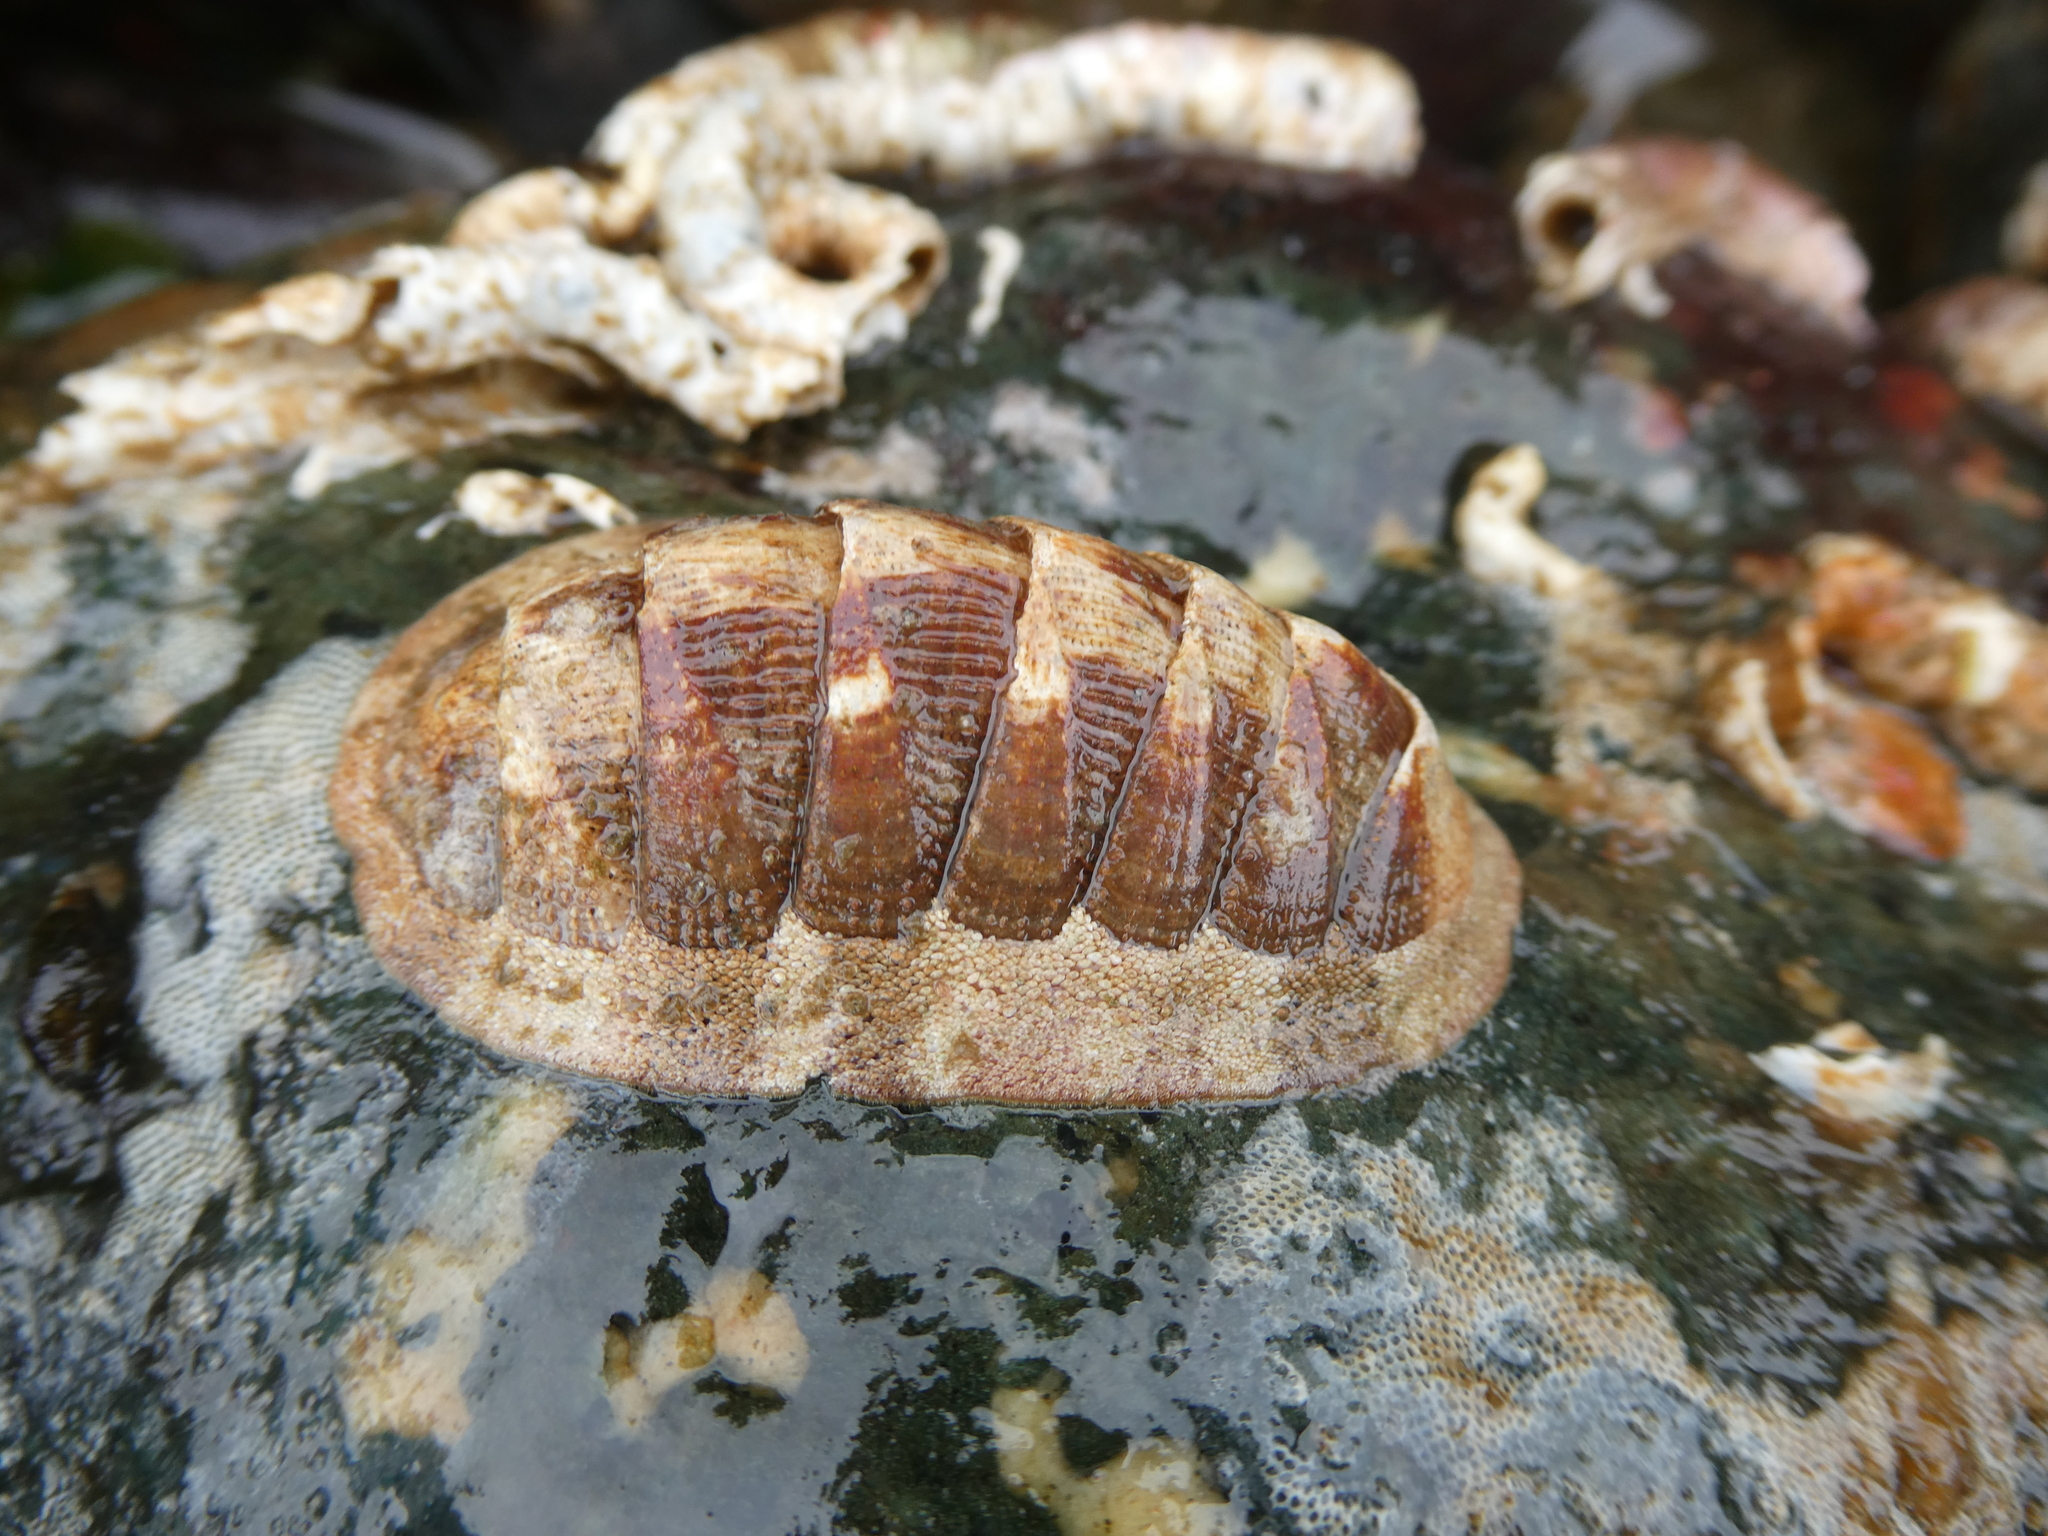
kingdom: Animalia
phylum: Mollusca
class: Polyplacophora
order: Chitonida
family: Ischnochitonidae
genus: Lepidozona
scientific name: Lepidozona mertensii
